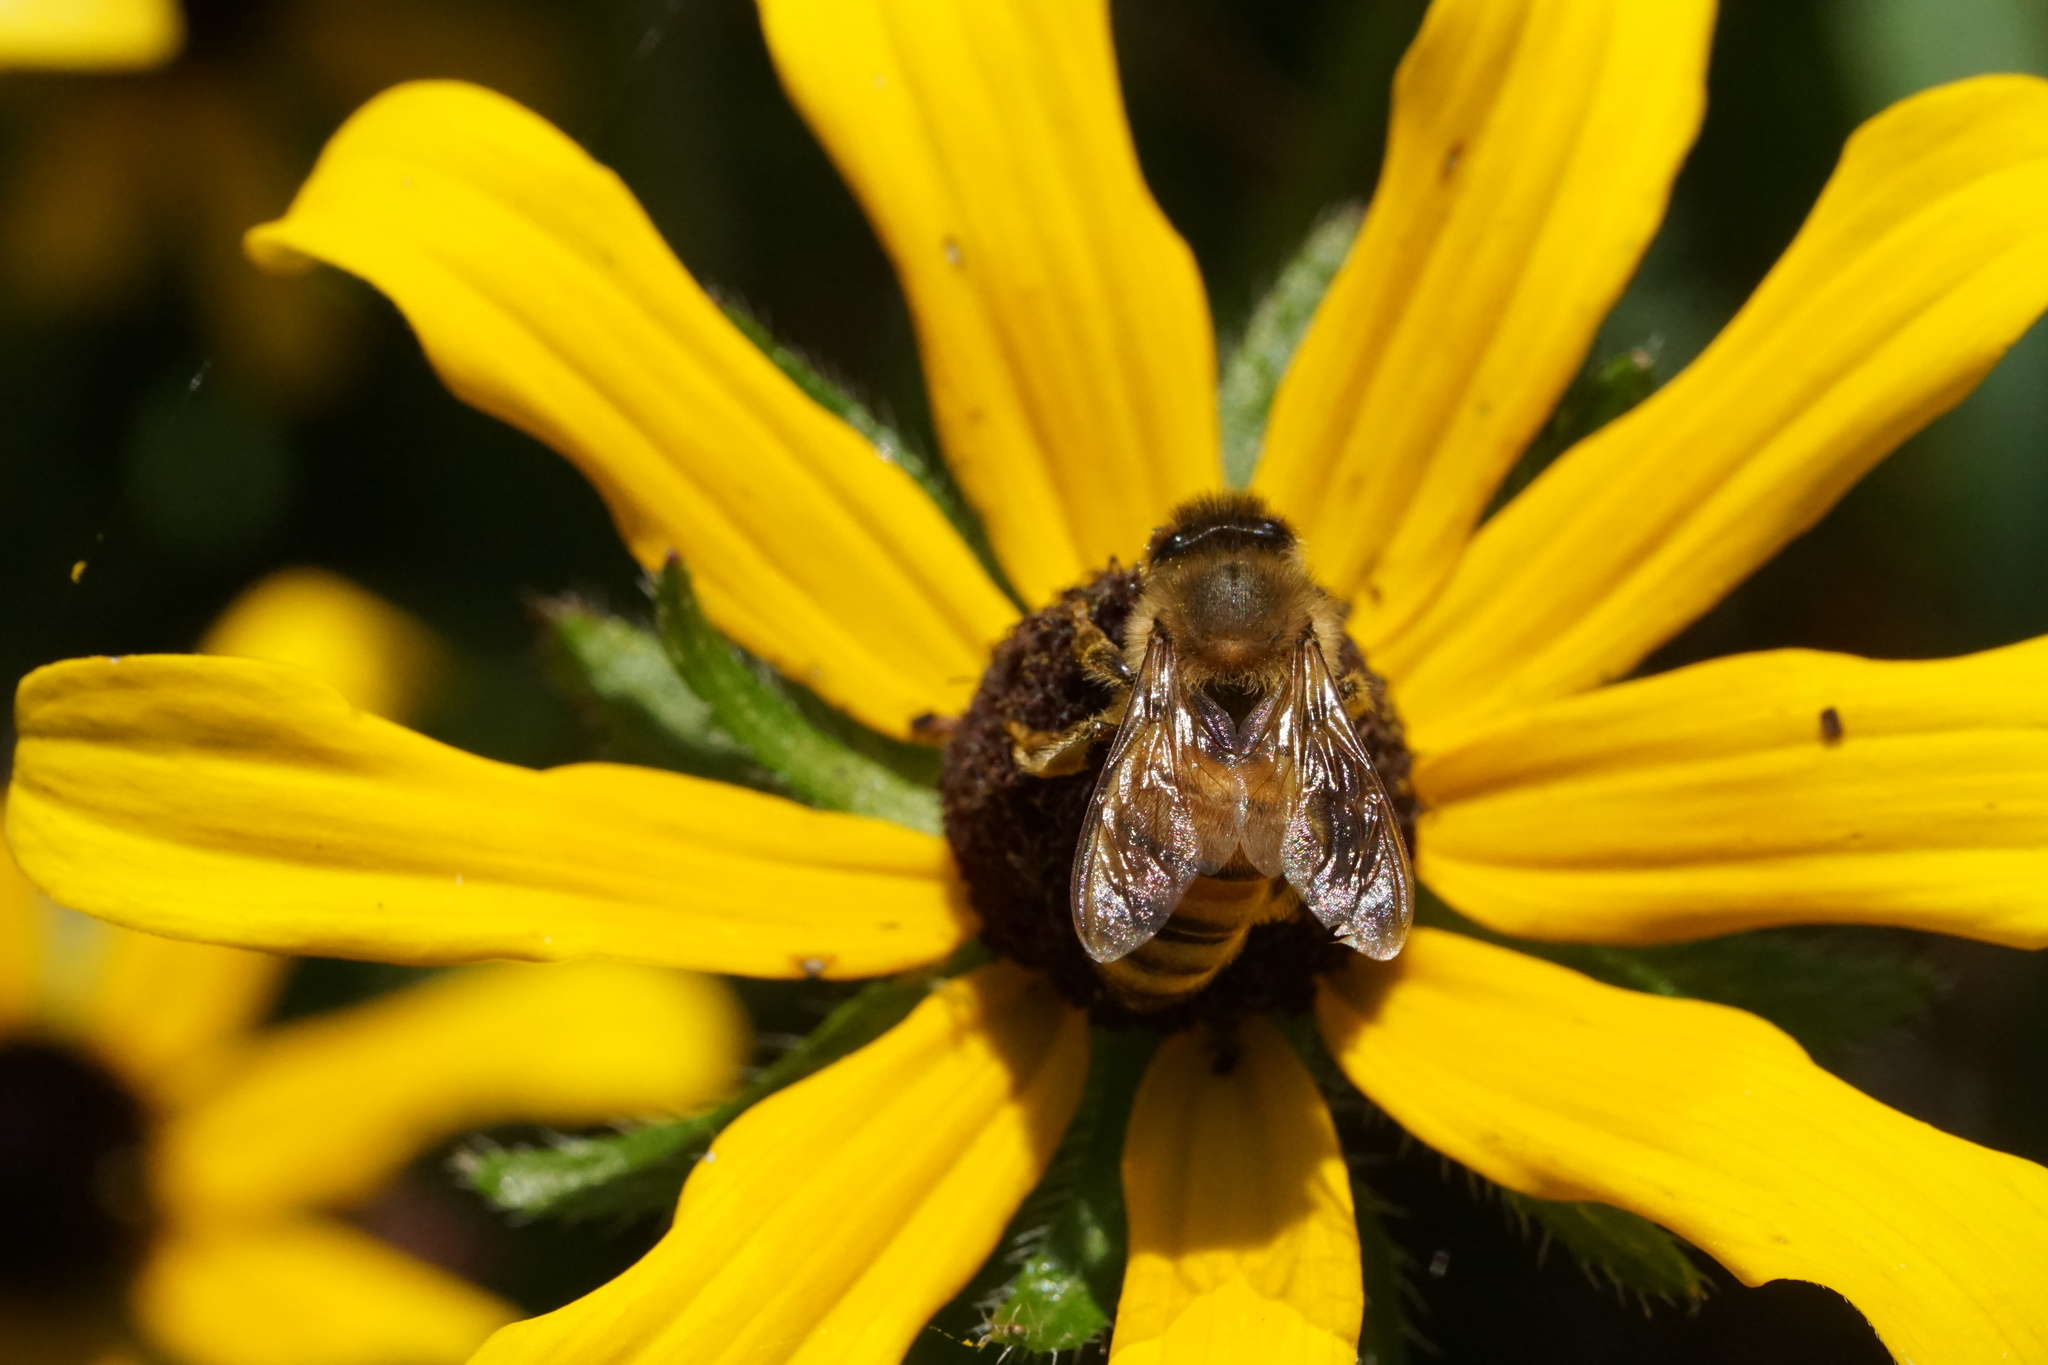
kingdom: Animalia
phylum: Arthropoda
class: Insecta
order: Hymenoptera
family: Apidae
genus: Apis
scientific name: Apis mellifera
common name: Honey bee
